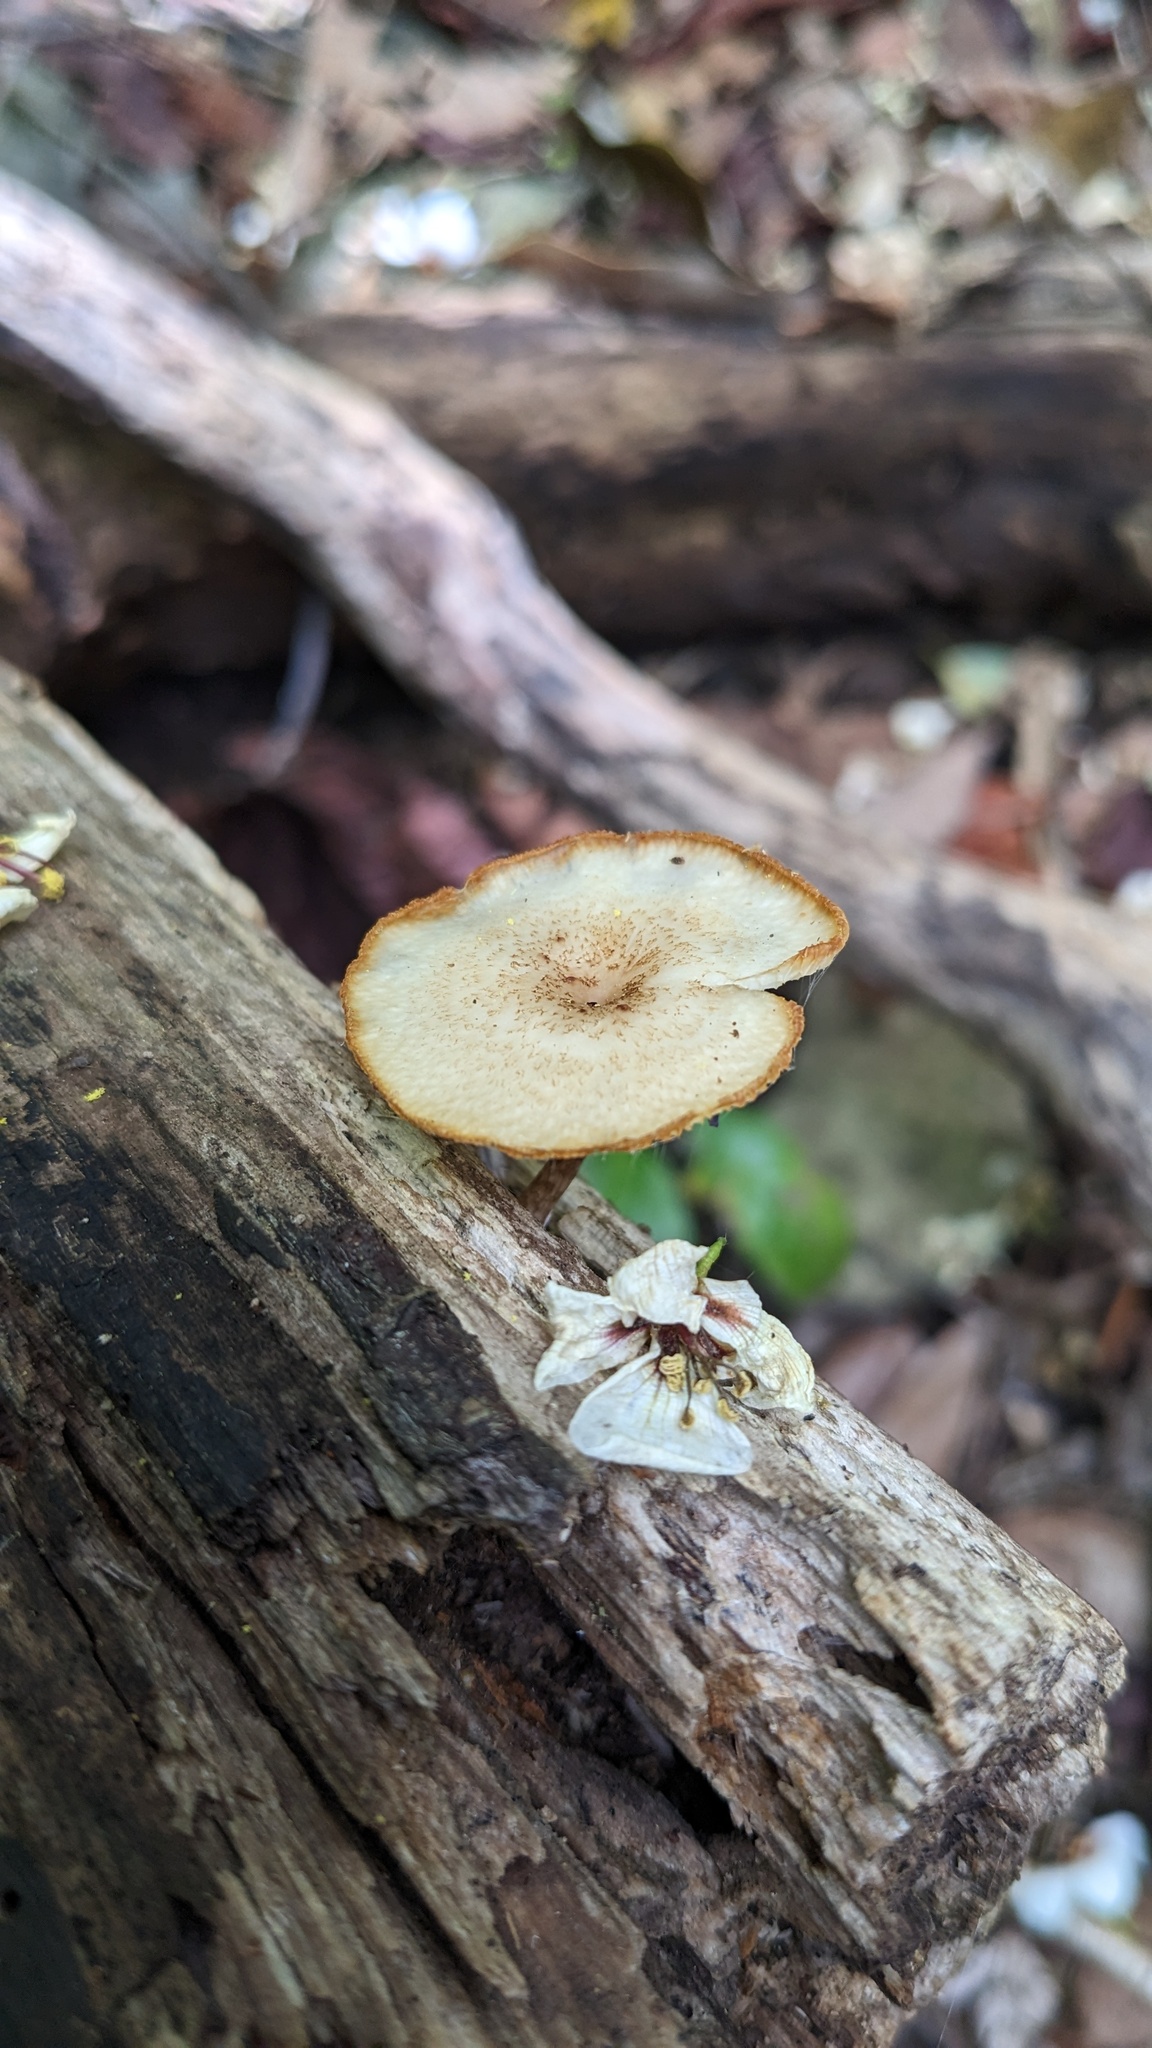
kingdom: Fungi
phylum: Basidiomycota
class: Agaricomycetes
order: Polyporales
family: Polyporaceae
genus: Lentinus
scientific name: Lentinus arcularius
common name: Spring polypore
